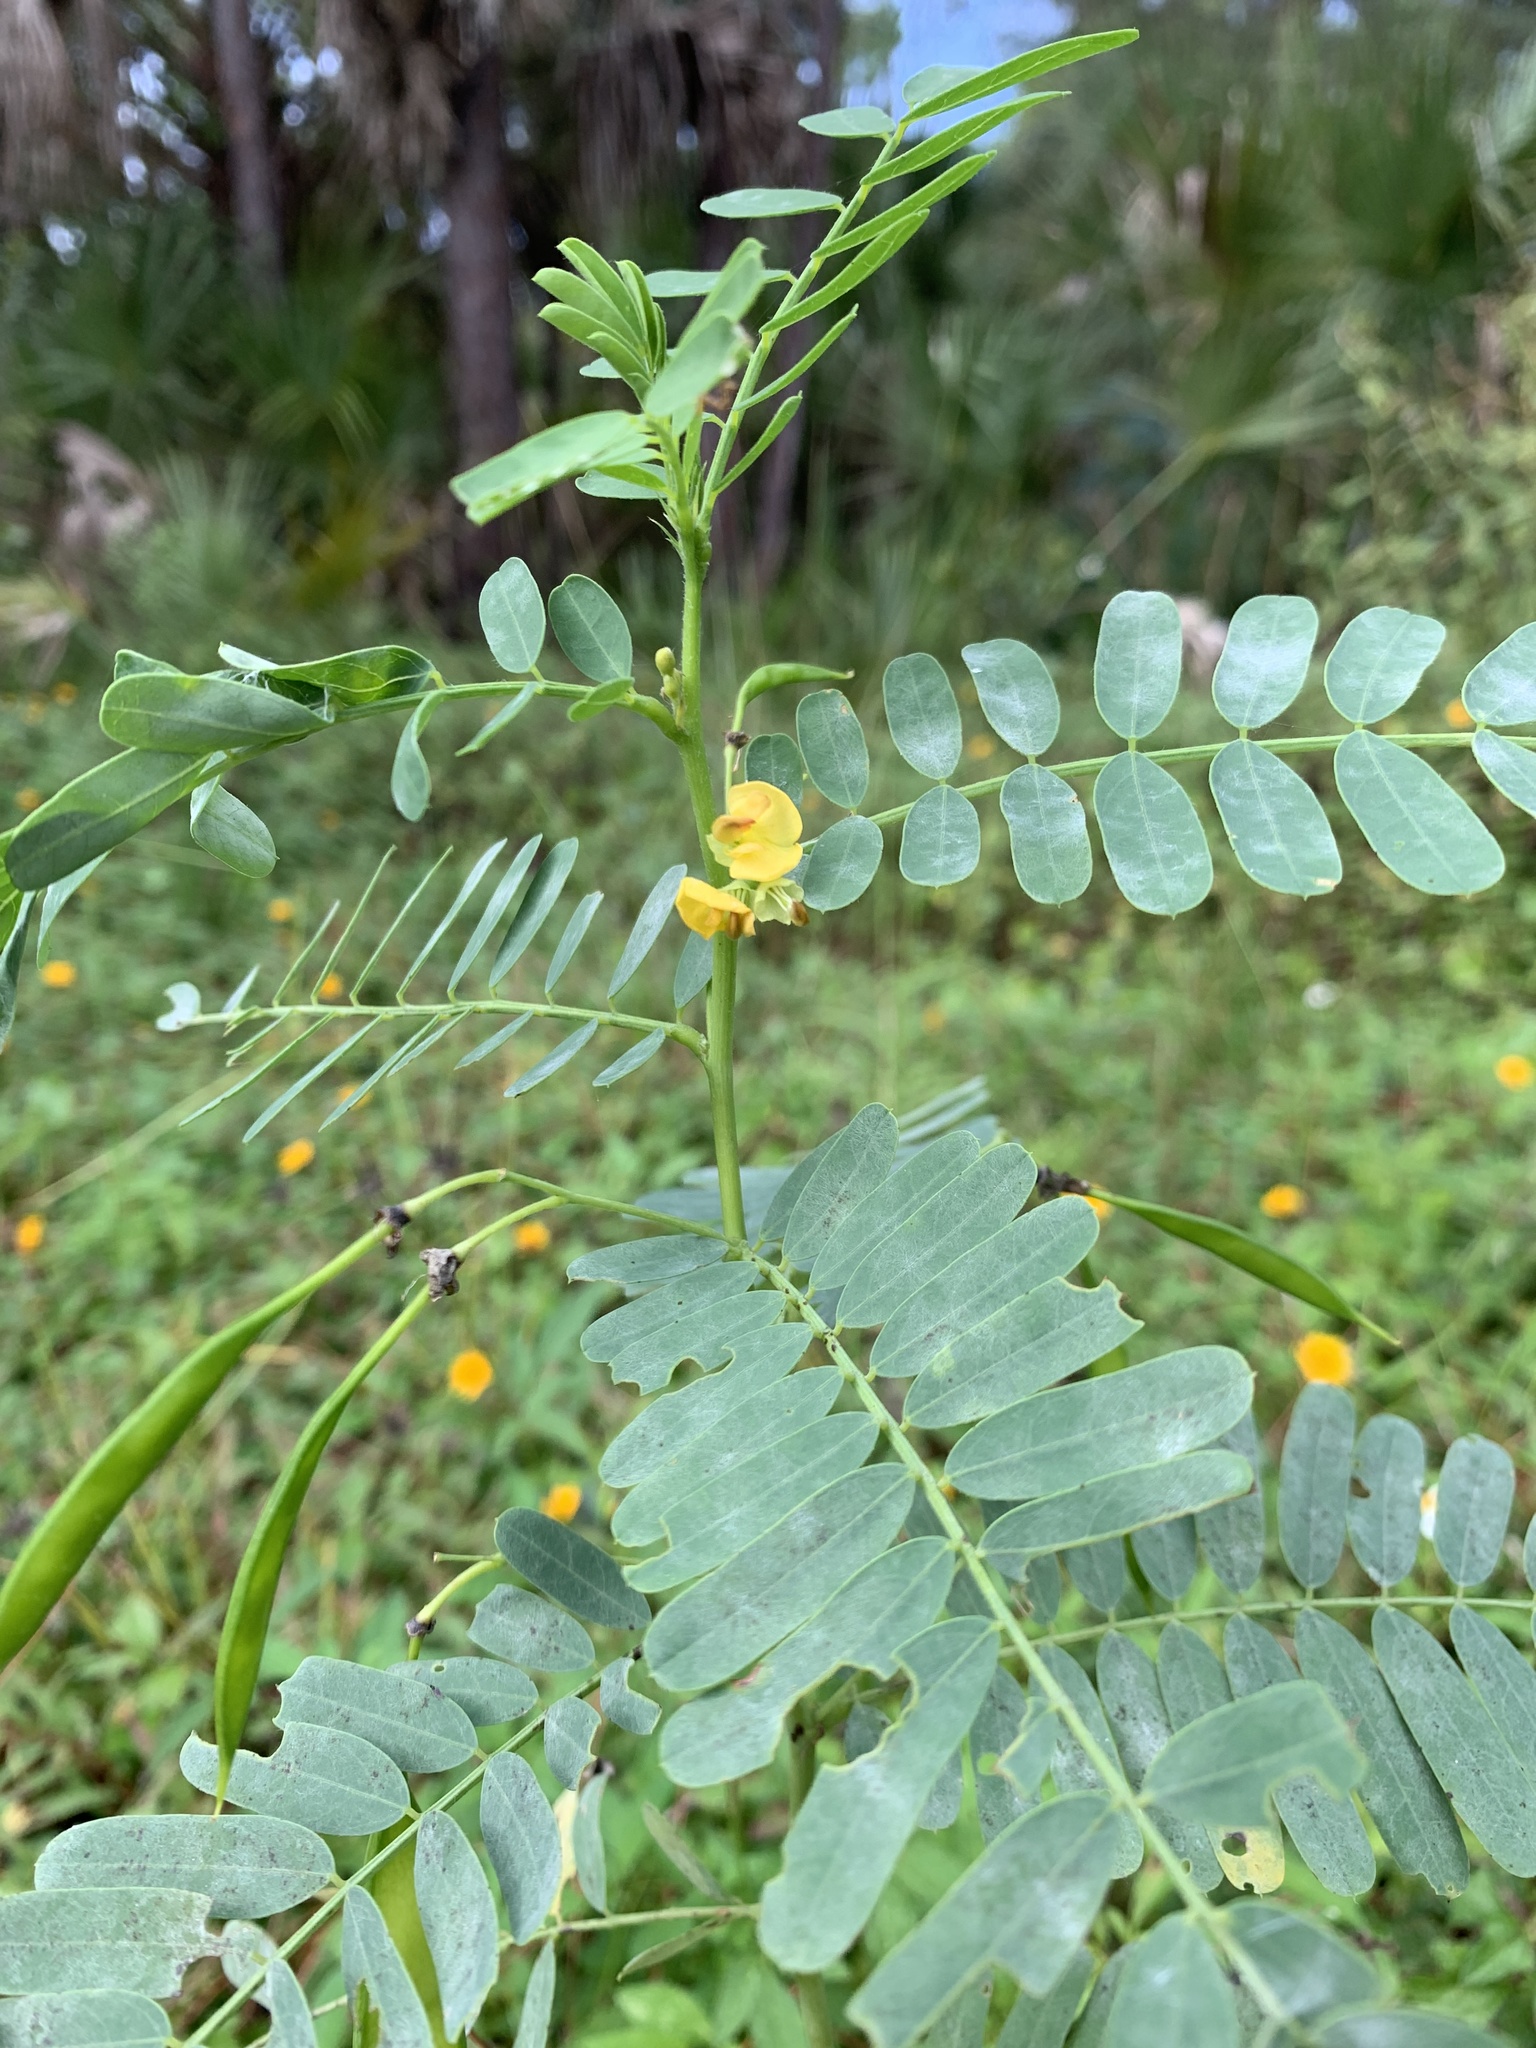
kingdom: Plantae
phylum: Tracheophyta
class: Magnoliopsida
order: Fabales
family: Fabaceae
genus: Sesbania
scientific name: Sesbania vesicaria
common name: Bagpod
